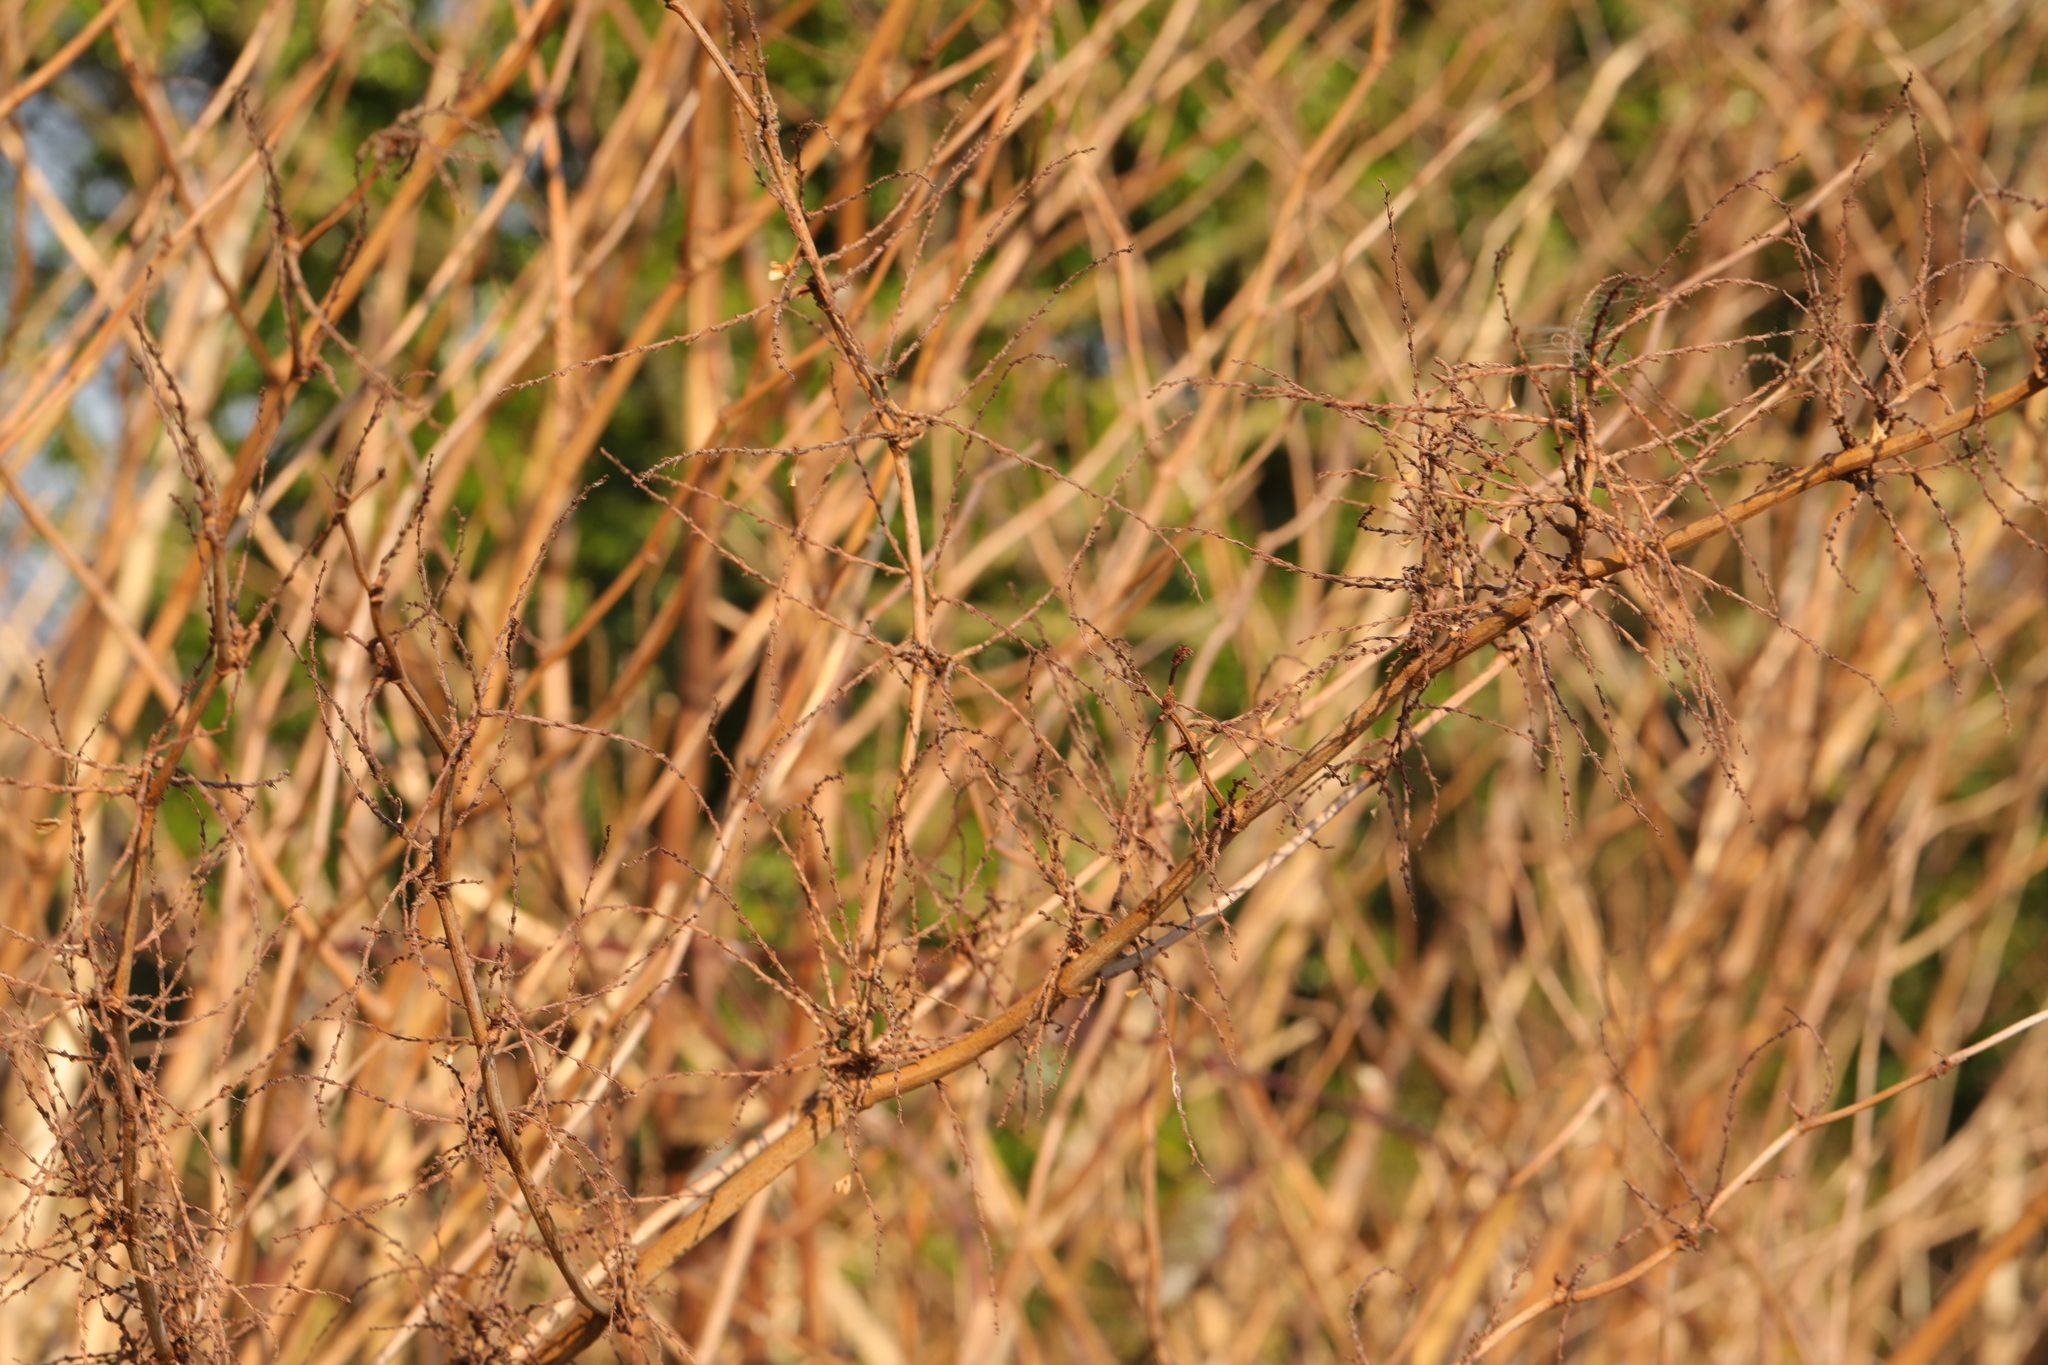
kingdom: Plantae
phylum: Tracheophyta
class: Magnoliopsida
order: Caryophyllales
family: Polygonaceae
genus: Reynoutria
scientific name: Reynoutria japonica
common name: Japanese knotweed
